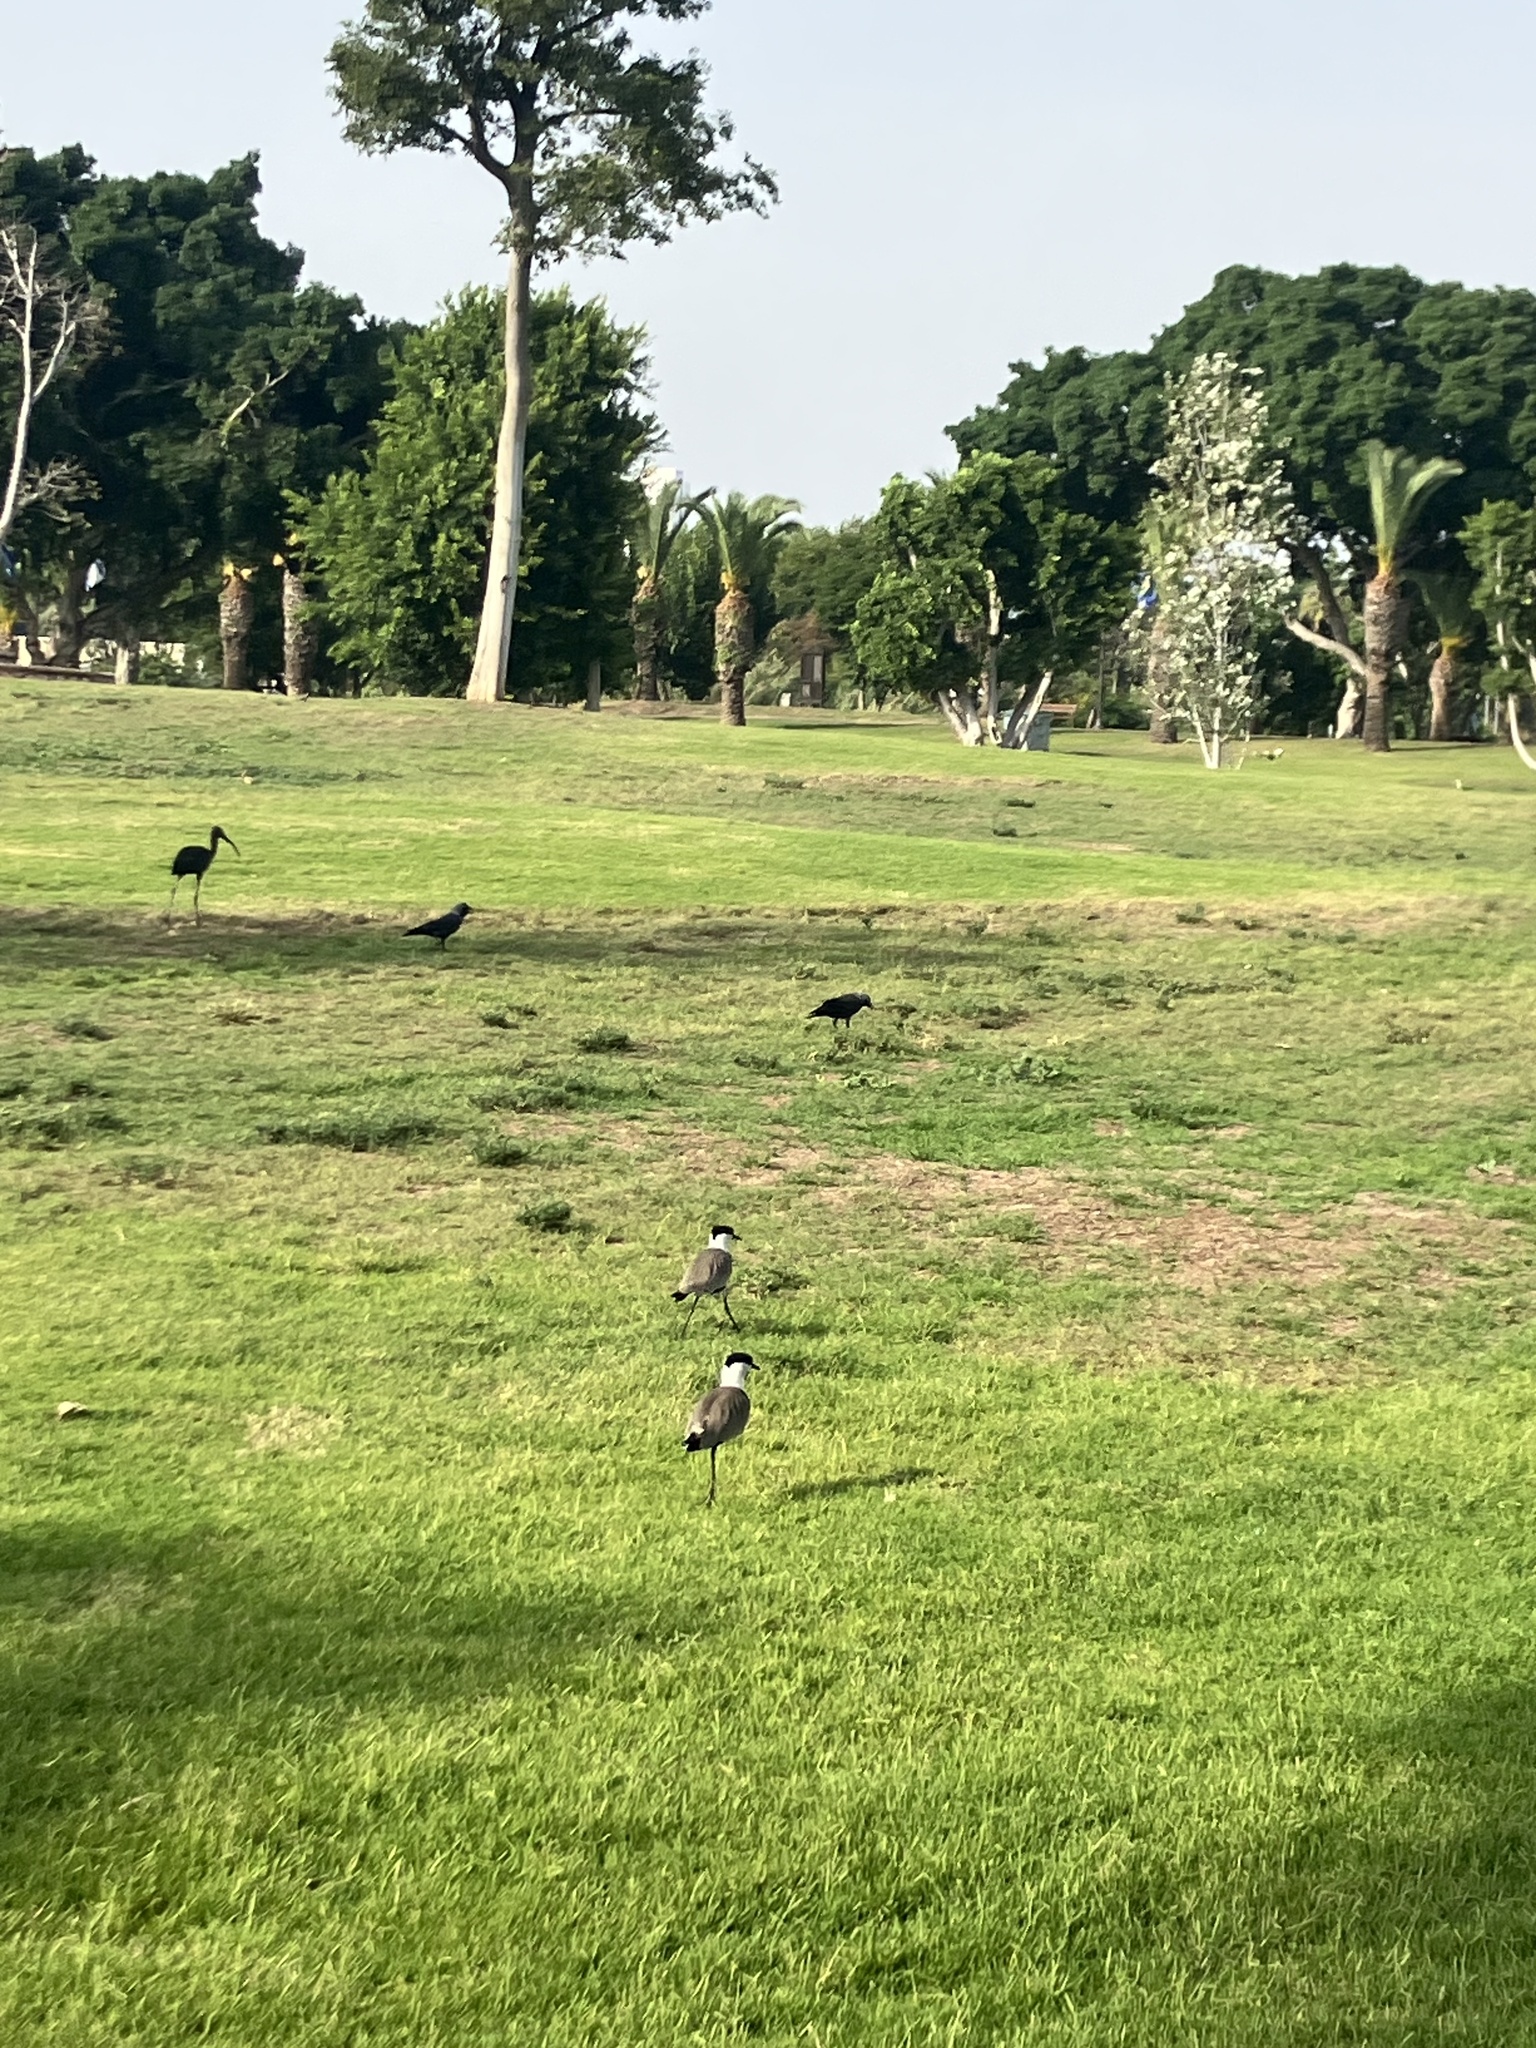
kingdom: Animalia
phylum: Chordata
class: Aves
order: Charadriiformes
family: Charadriidae
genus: Vanellus
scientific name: Vanellus spinosus
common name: Spur-winged lapwing
